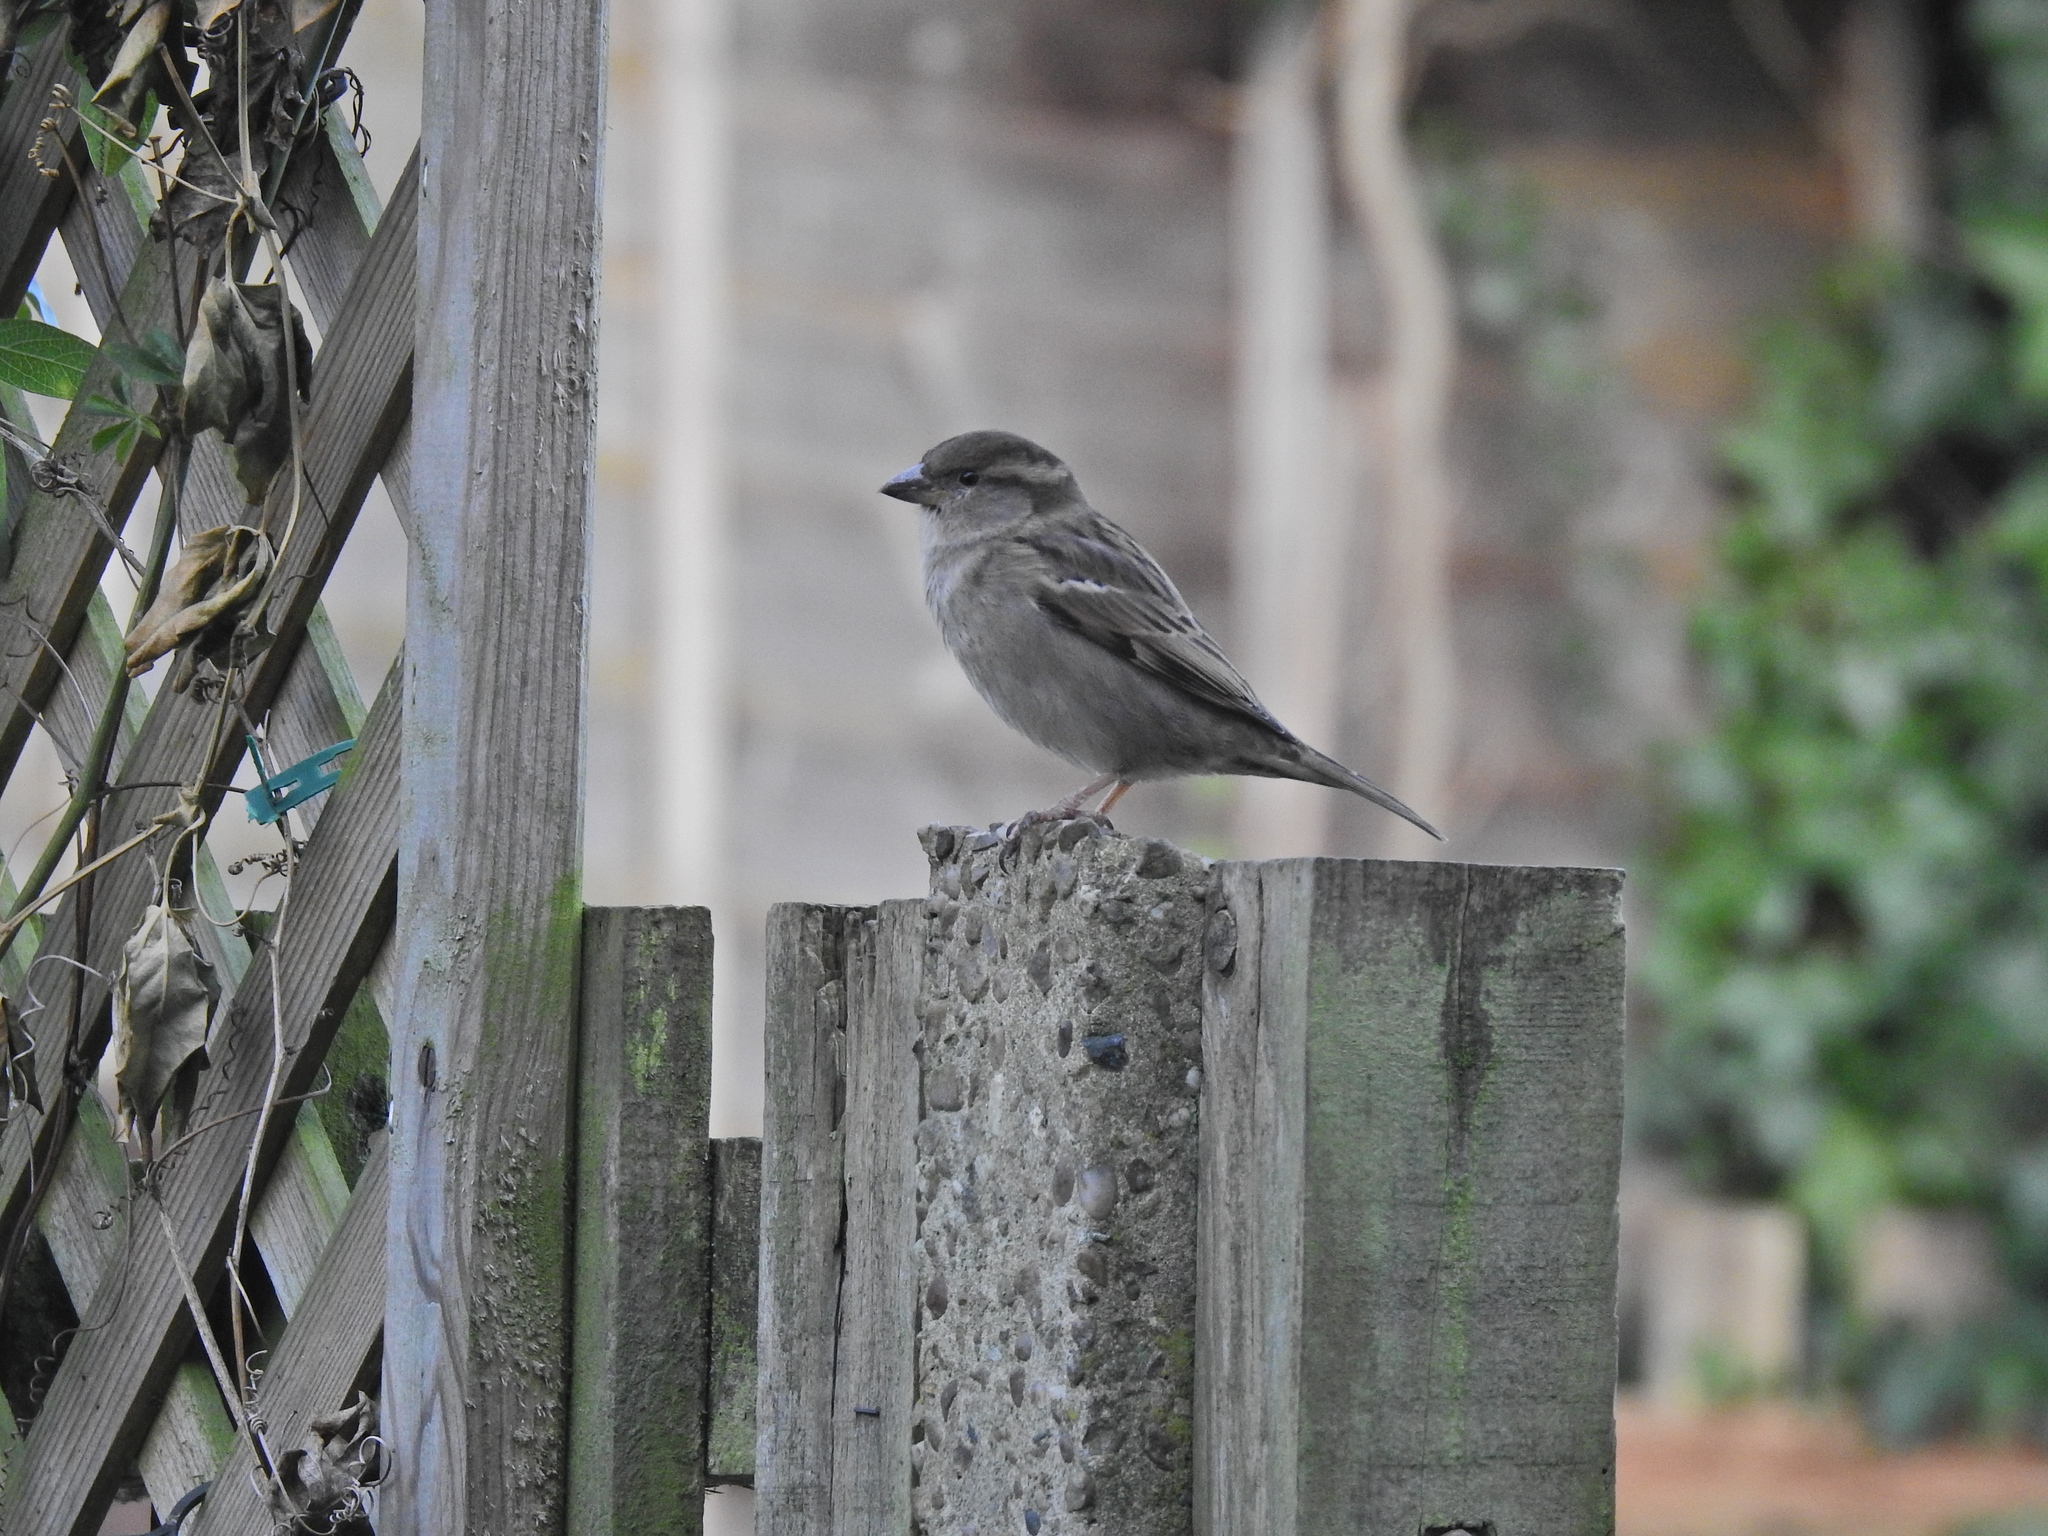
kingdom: Animalia
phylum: Chordata
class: Aves
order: Passeriformes
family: Passeridae
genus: Passer
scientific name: Passer domesticus
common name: House sparrow
